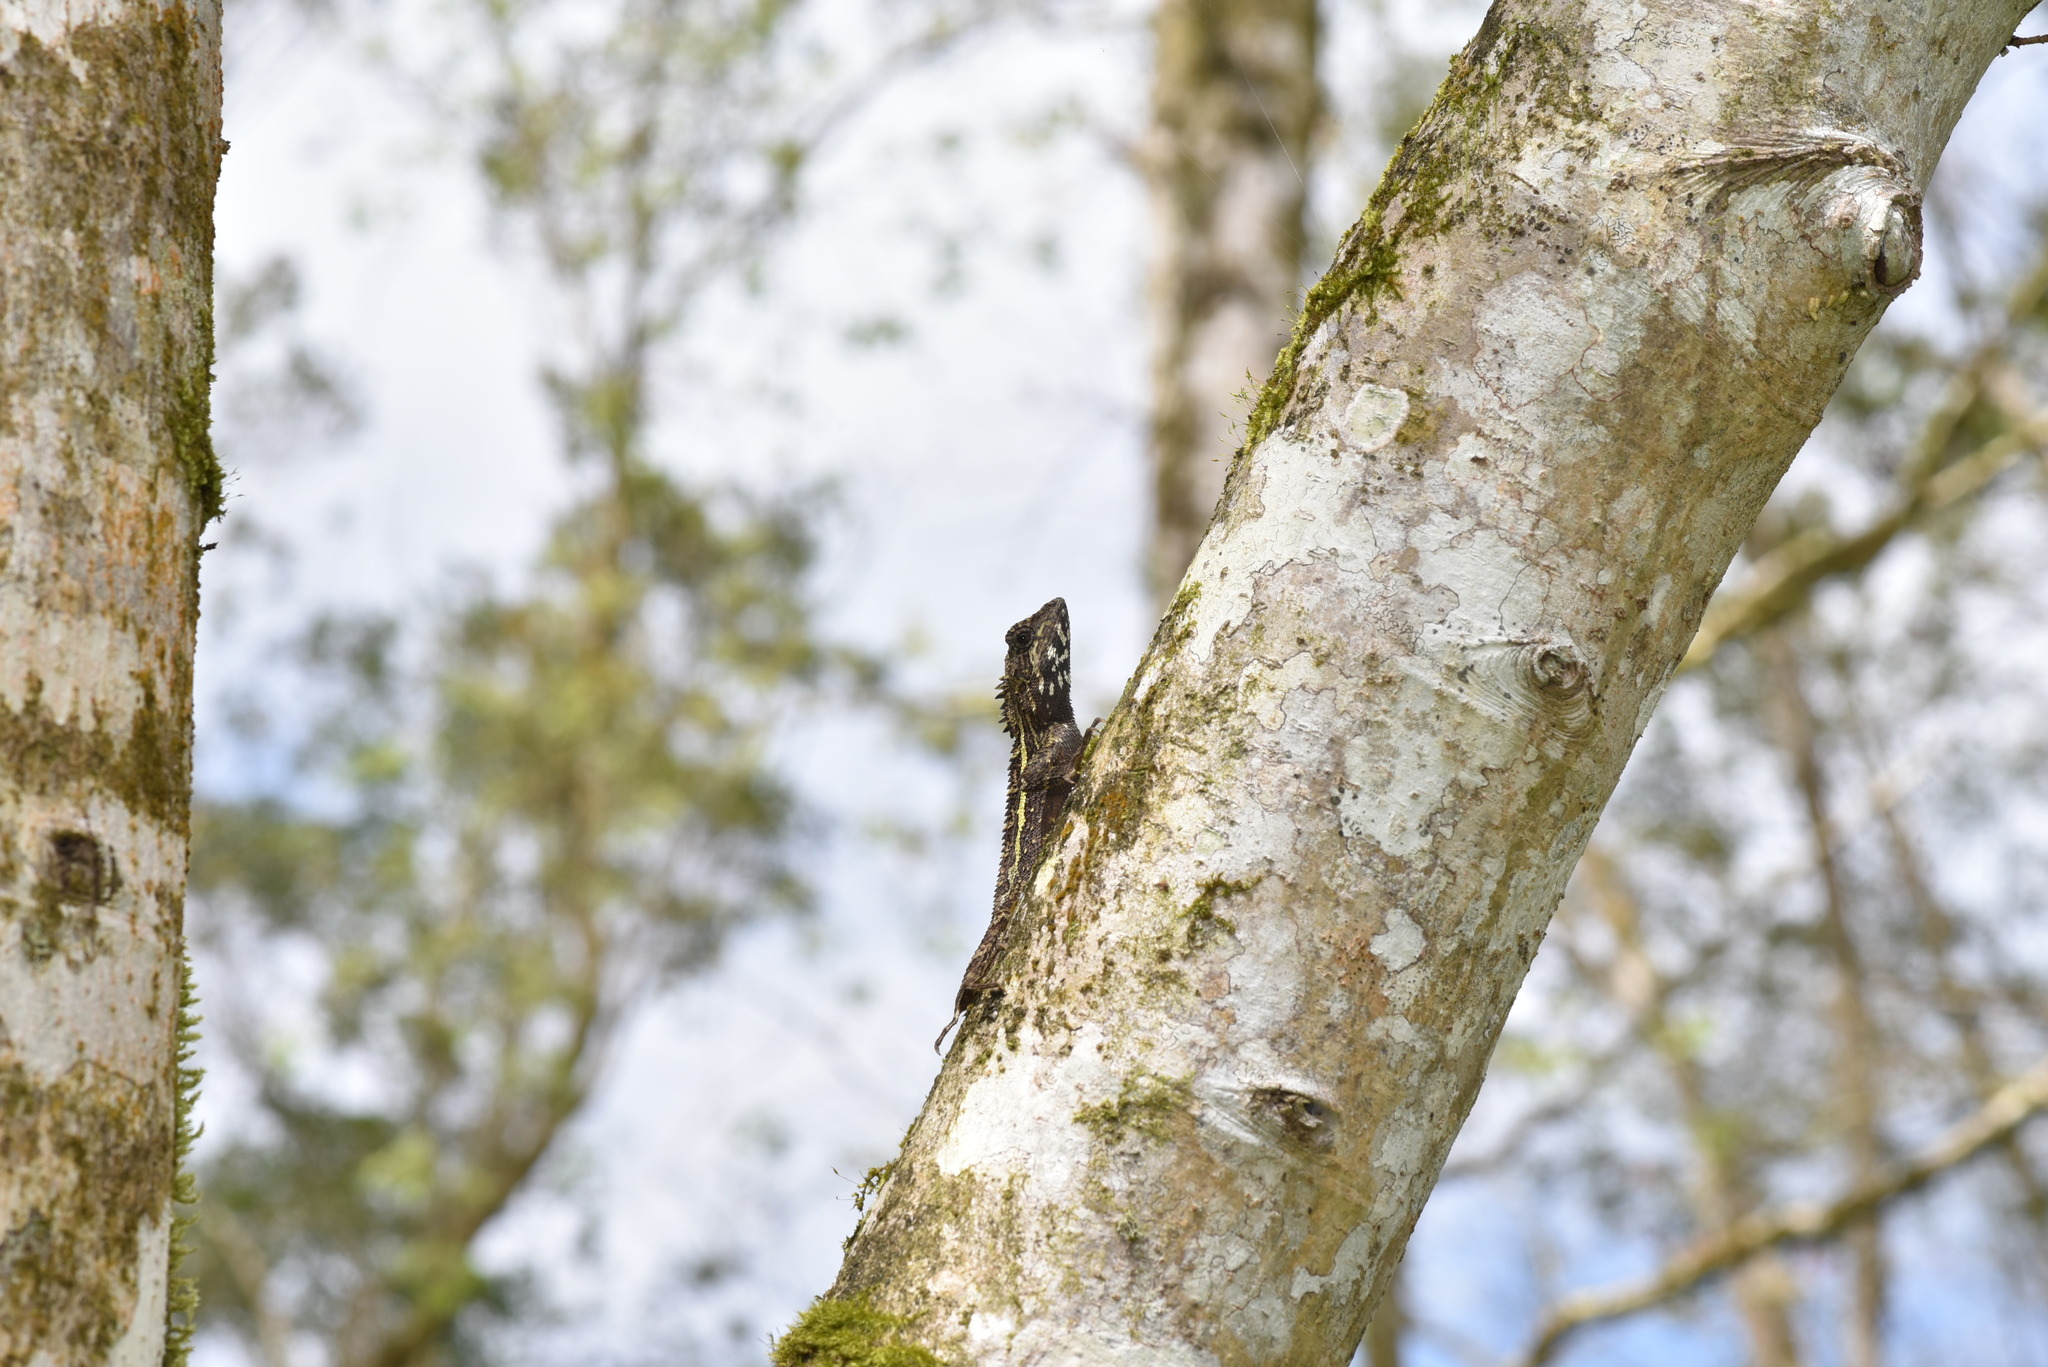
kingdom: Animalia
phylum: Chordata
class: Squamata
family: Agamidae
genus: Diploderma
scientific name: Diploderma swinhonis
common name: Taiwan japalure
